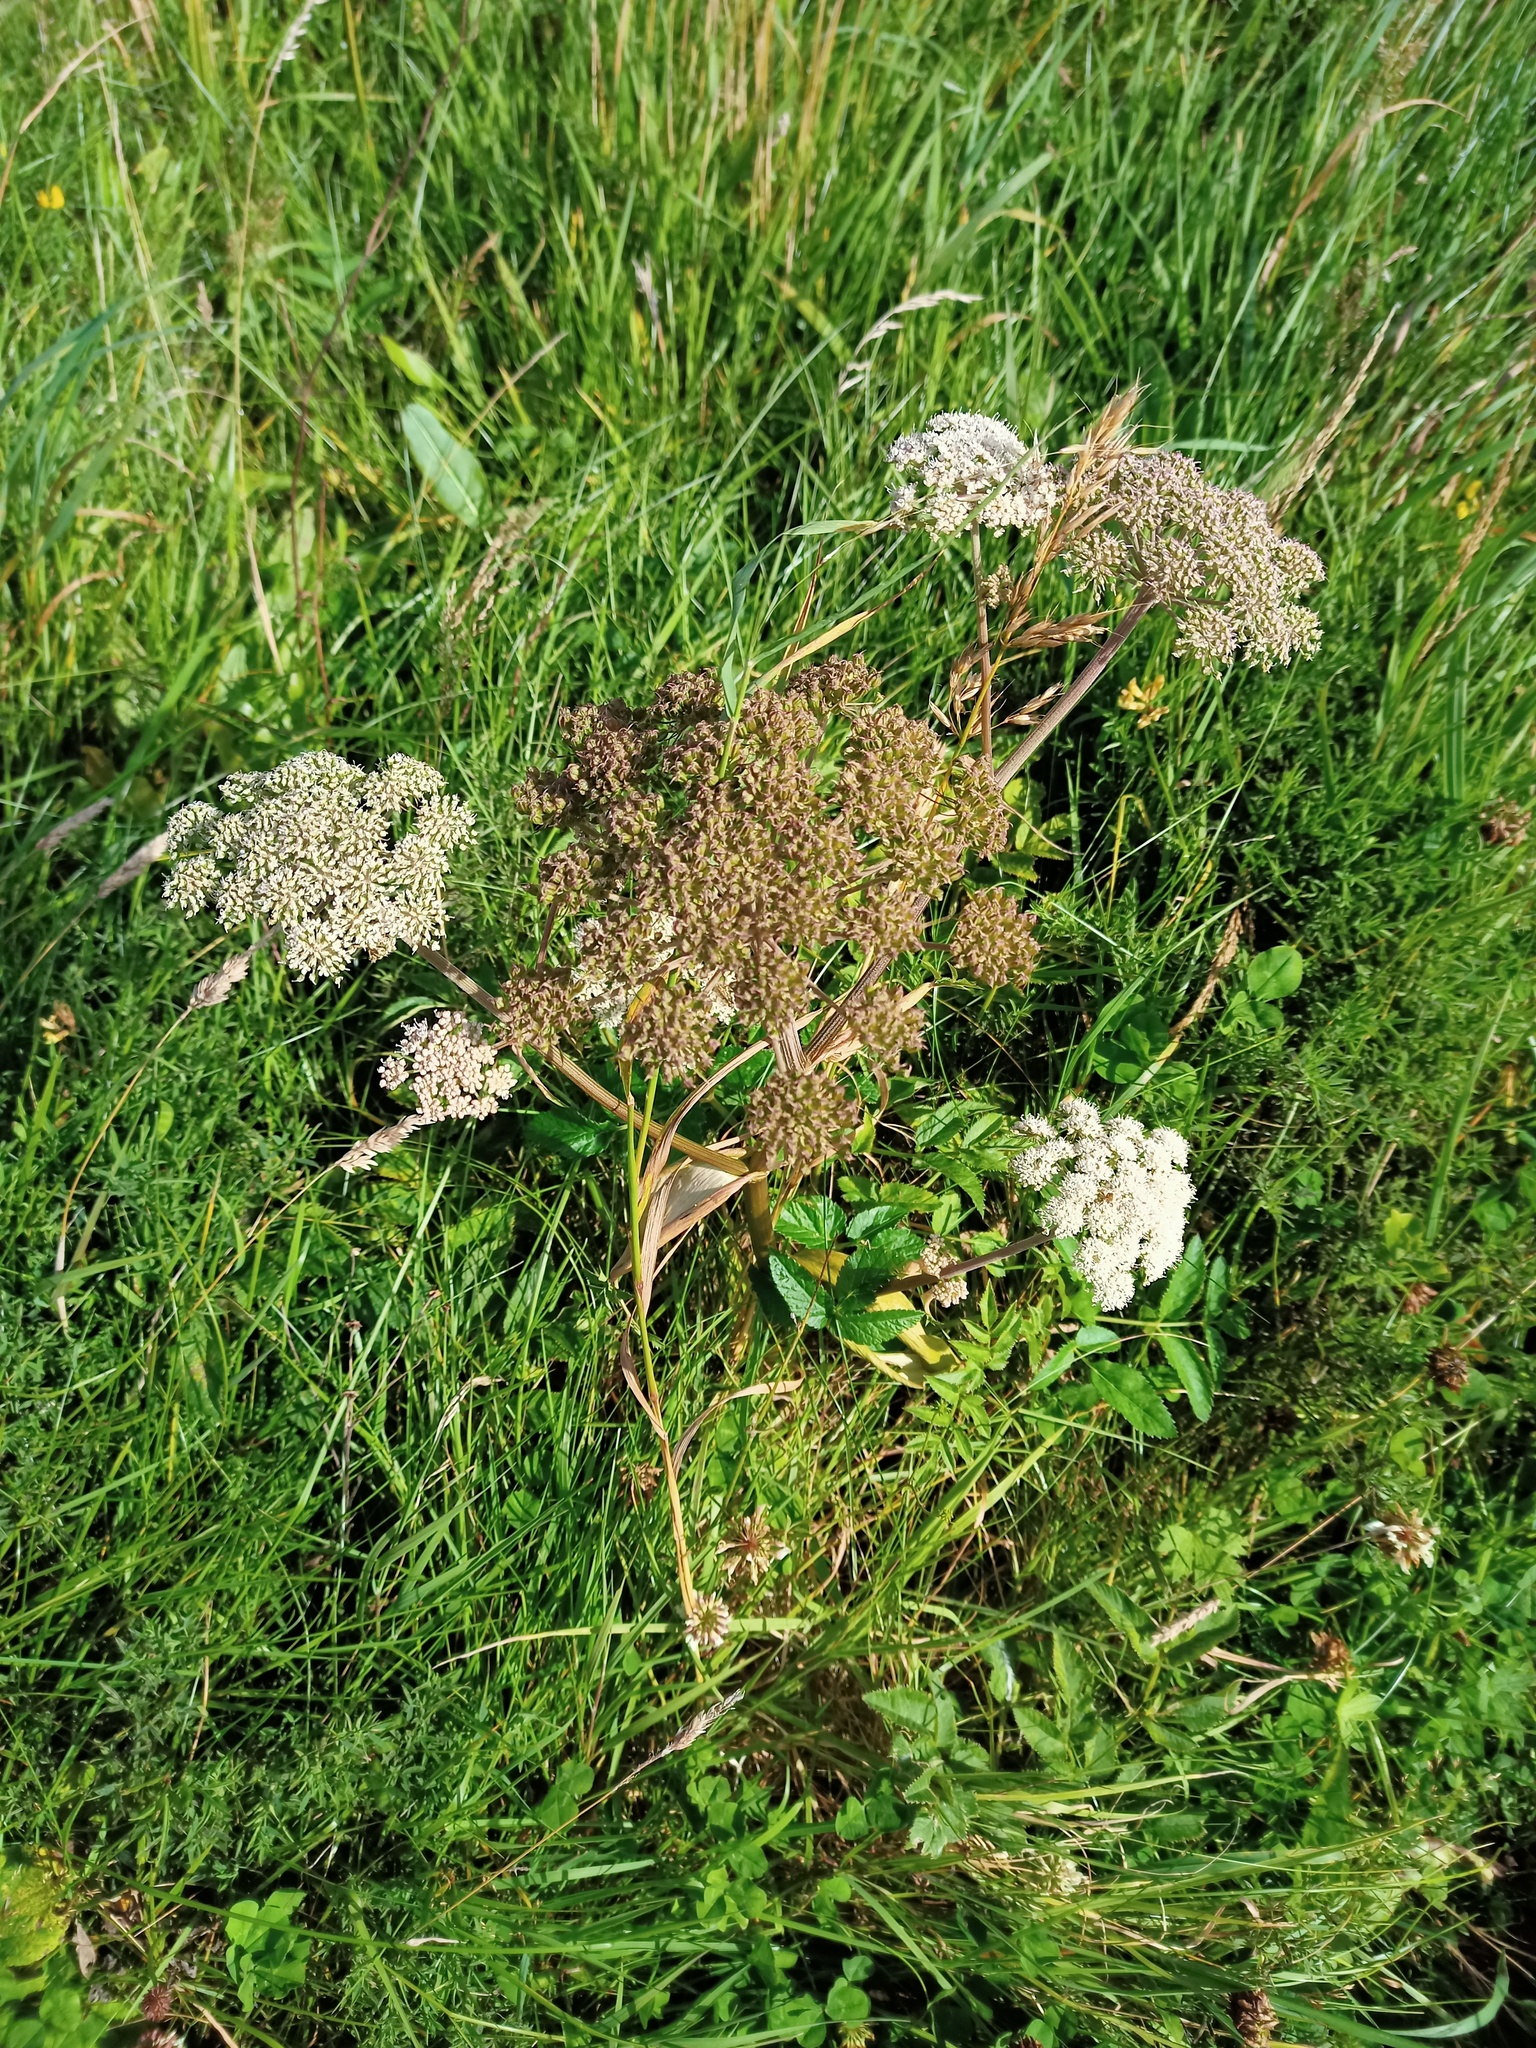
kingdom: Plantae
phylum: Tracheophyta
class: Magnoliopsida
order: Apiales
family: Apiaceae
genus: Angelica
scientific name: Angelica sylvestris
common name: Wild angelica
